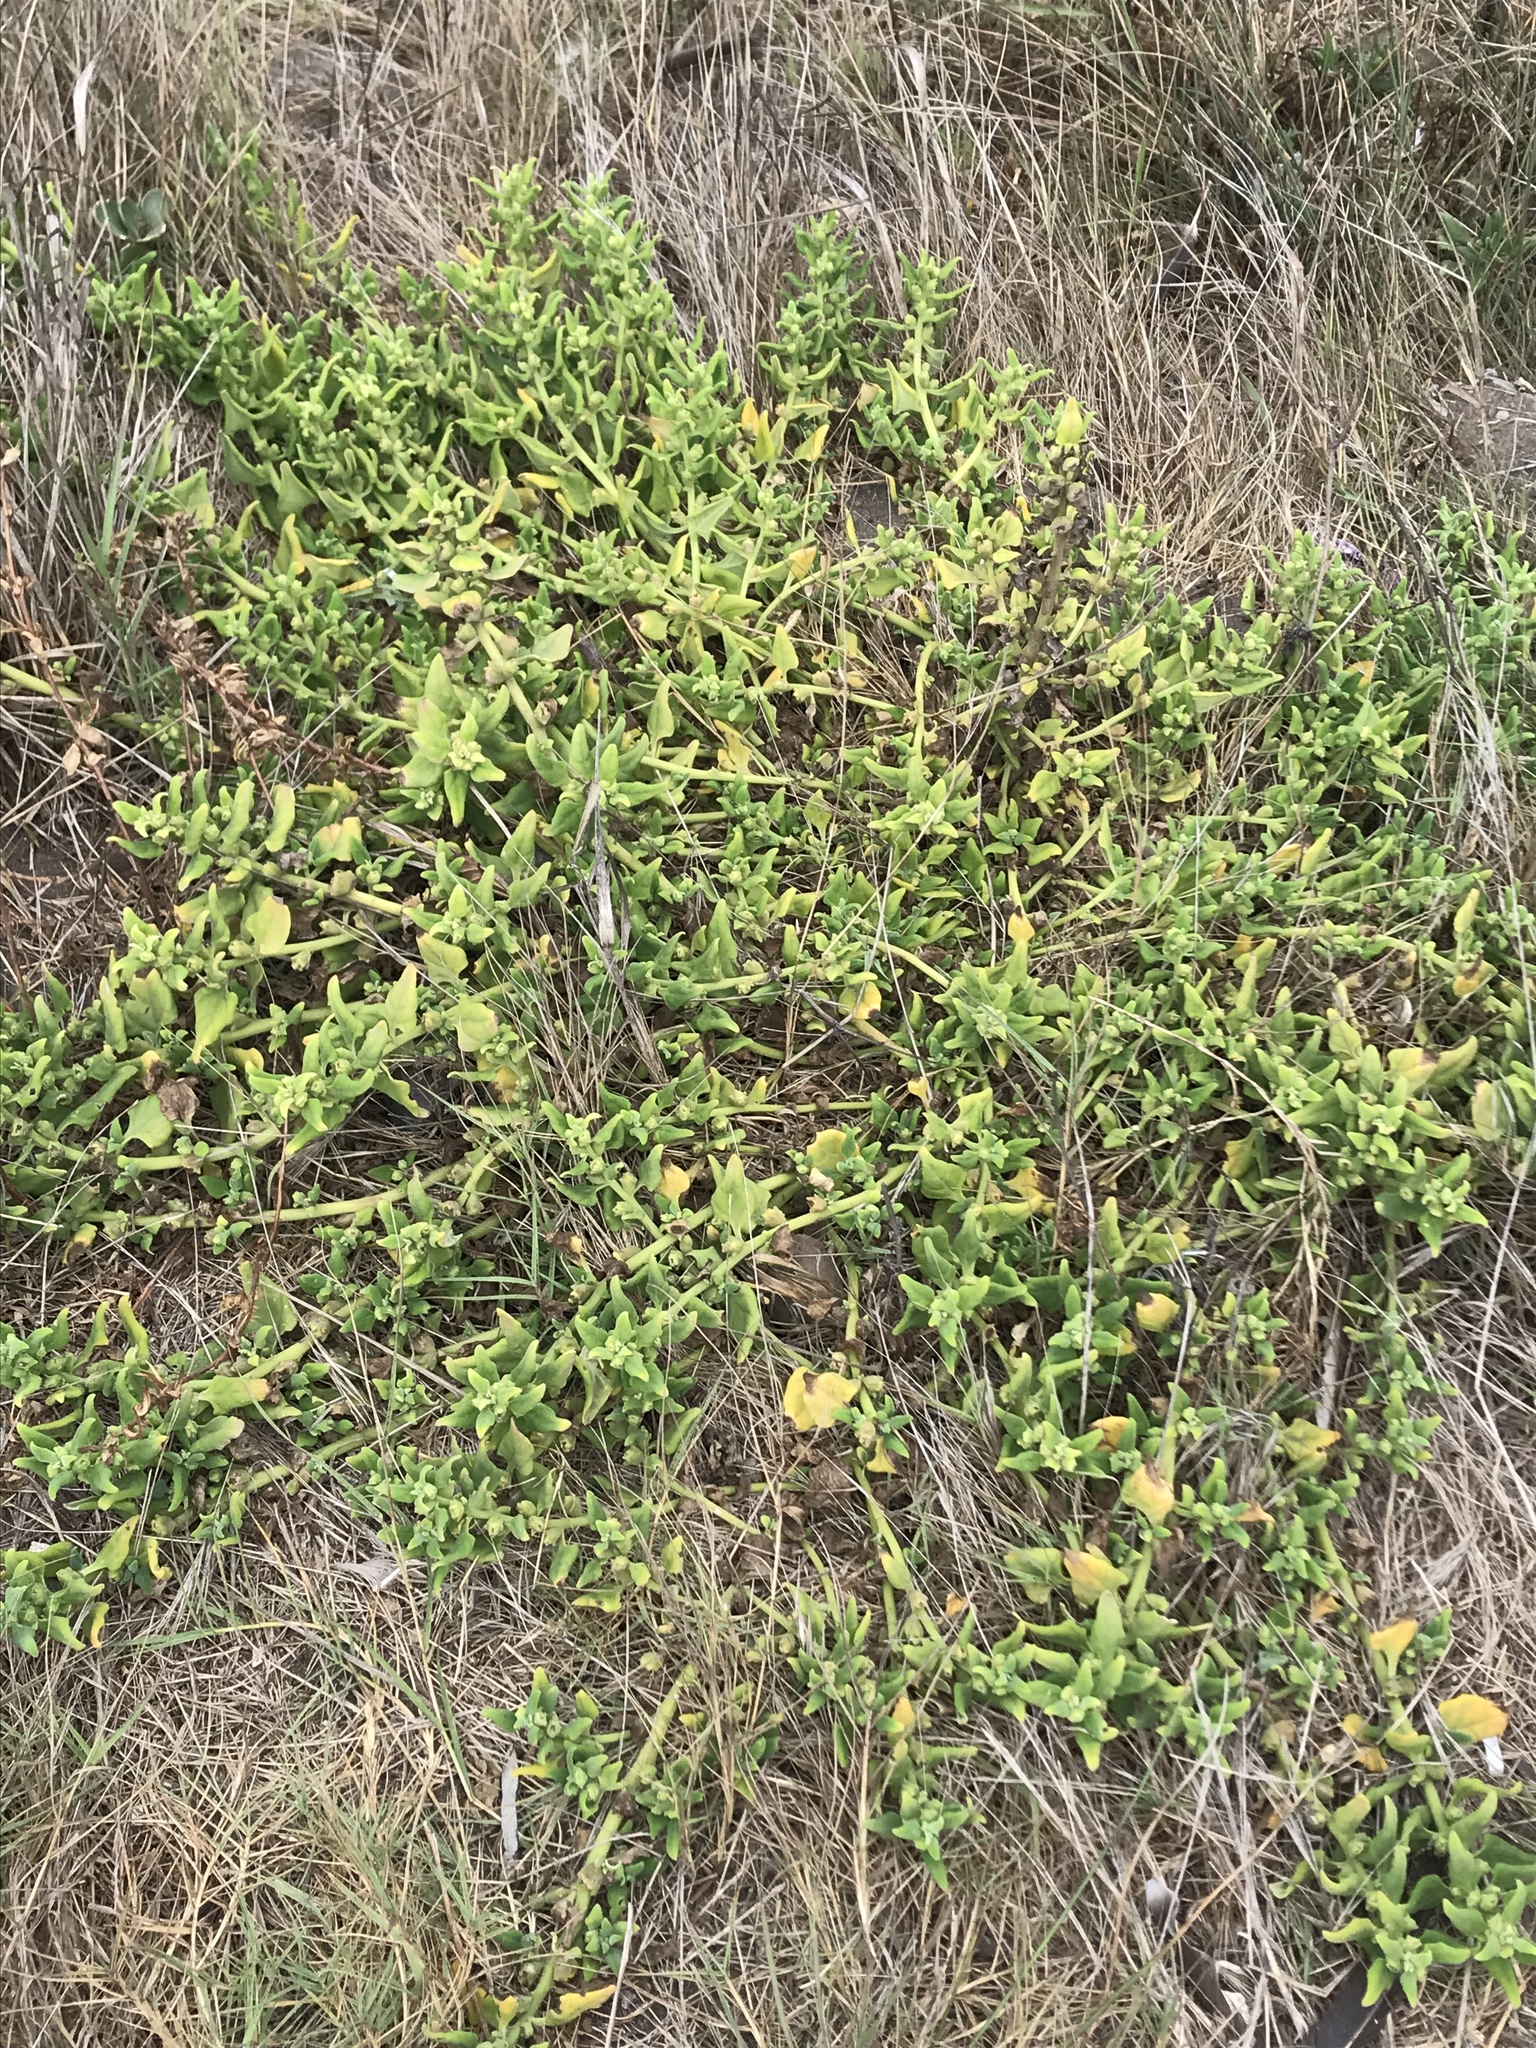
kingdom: Plantae
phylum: Tracheophyta
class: Magnoliopsida
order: Caryophyllales
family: Aizoaceae
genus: Tetragonia
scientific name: Tetragonia tetragonoides
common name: New zealand-spinach
